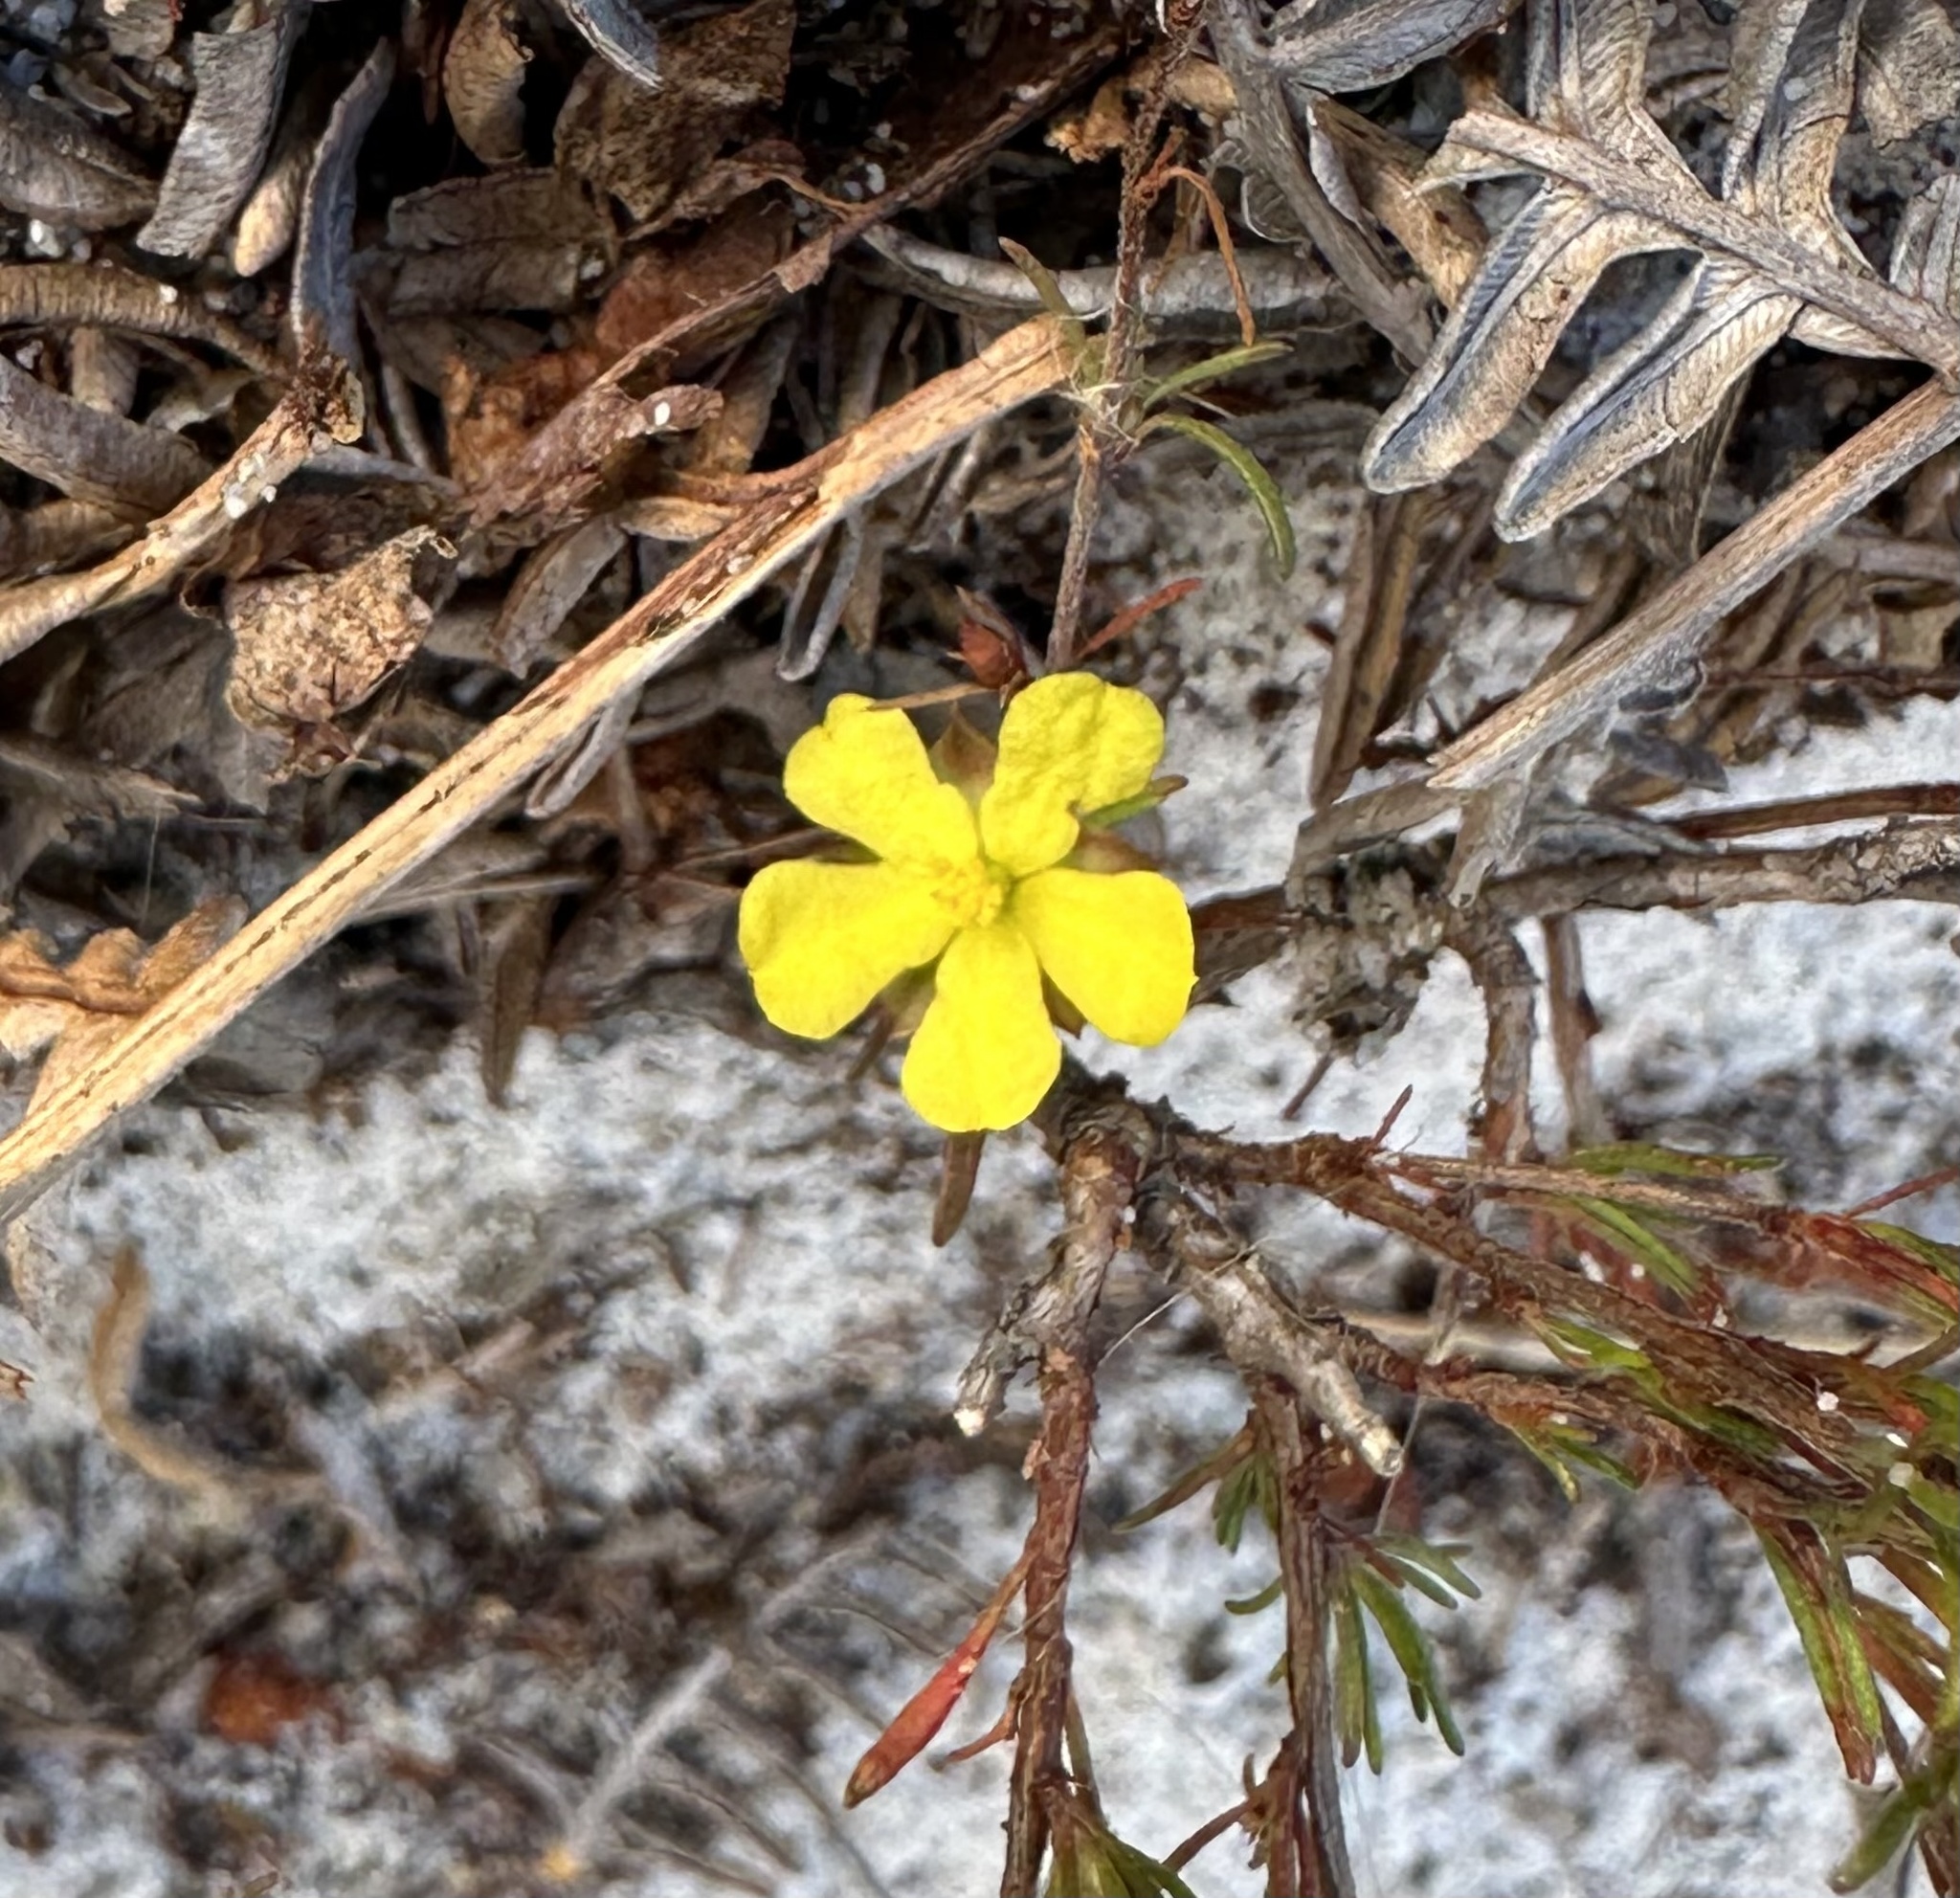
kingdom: Plantae
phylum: Tracheophyta
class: Magnoliopsida
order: Dilleniales
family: Dilleniaceae
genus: Hibbertia
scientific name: Hibbertia fasciculata
